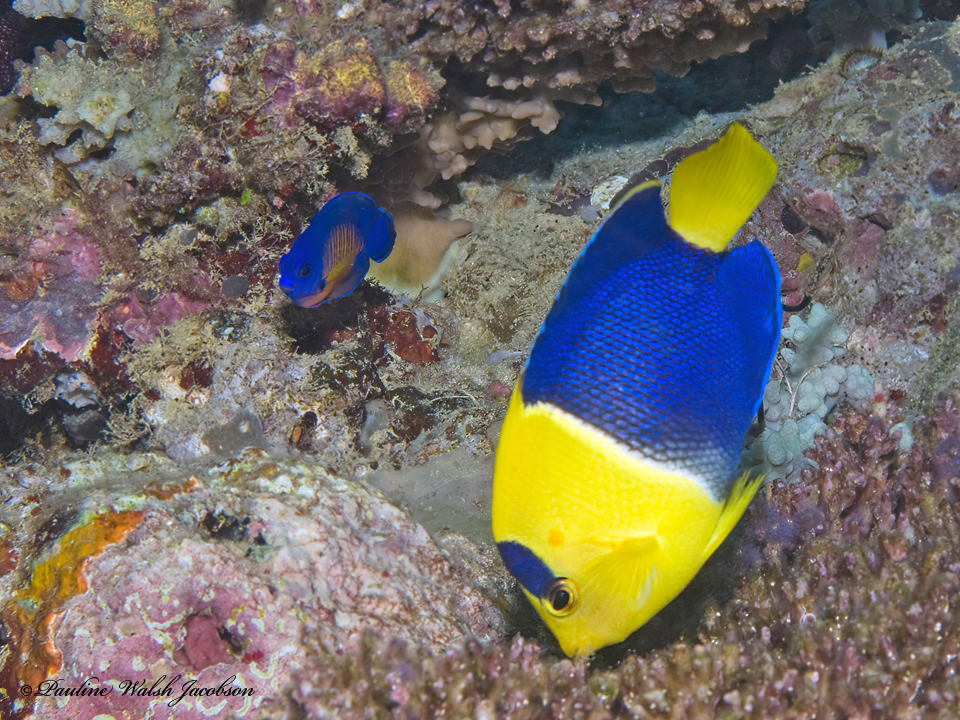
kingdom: Animalia
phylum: Chordata
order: Perciformes
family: Pomacanthidae
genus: Centropyge
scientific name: Centropyge bispinosa
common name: Coral beauty
